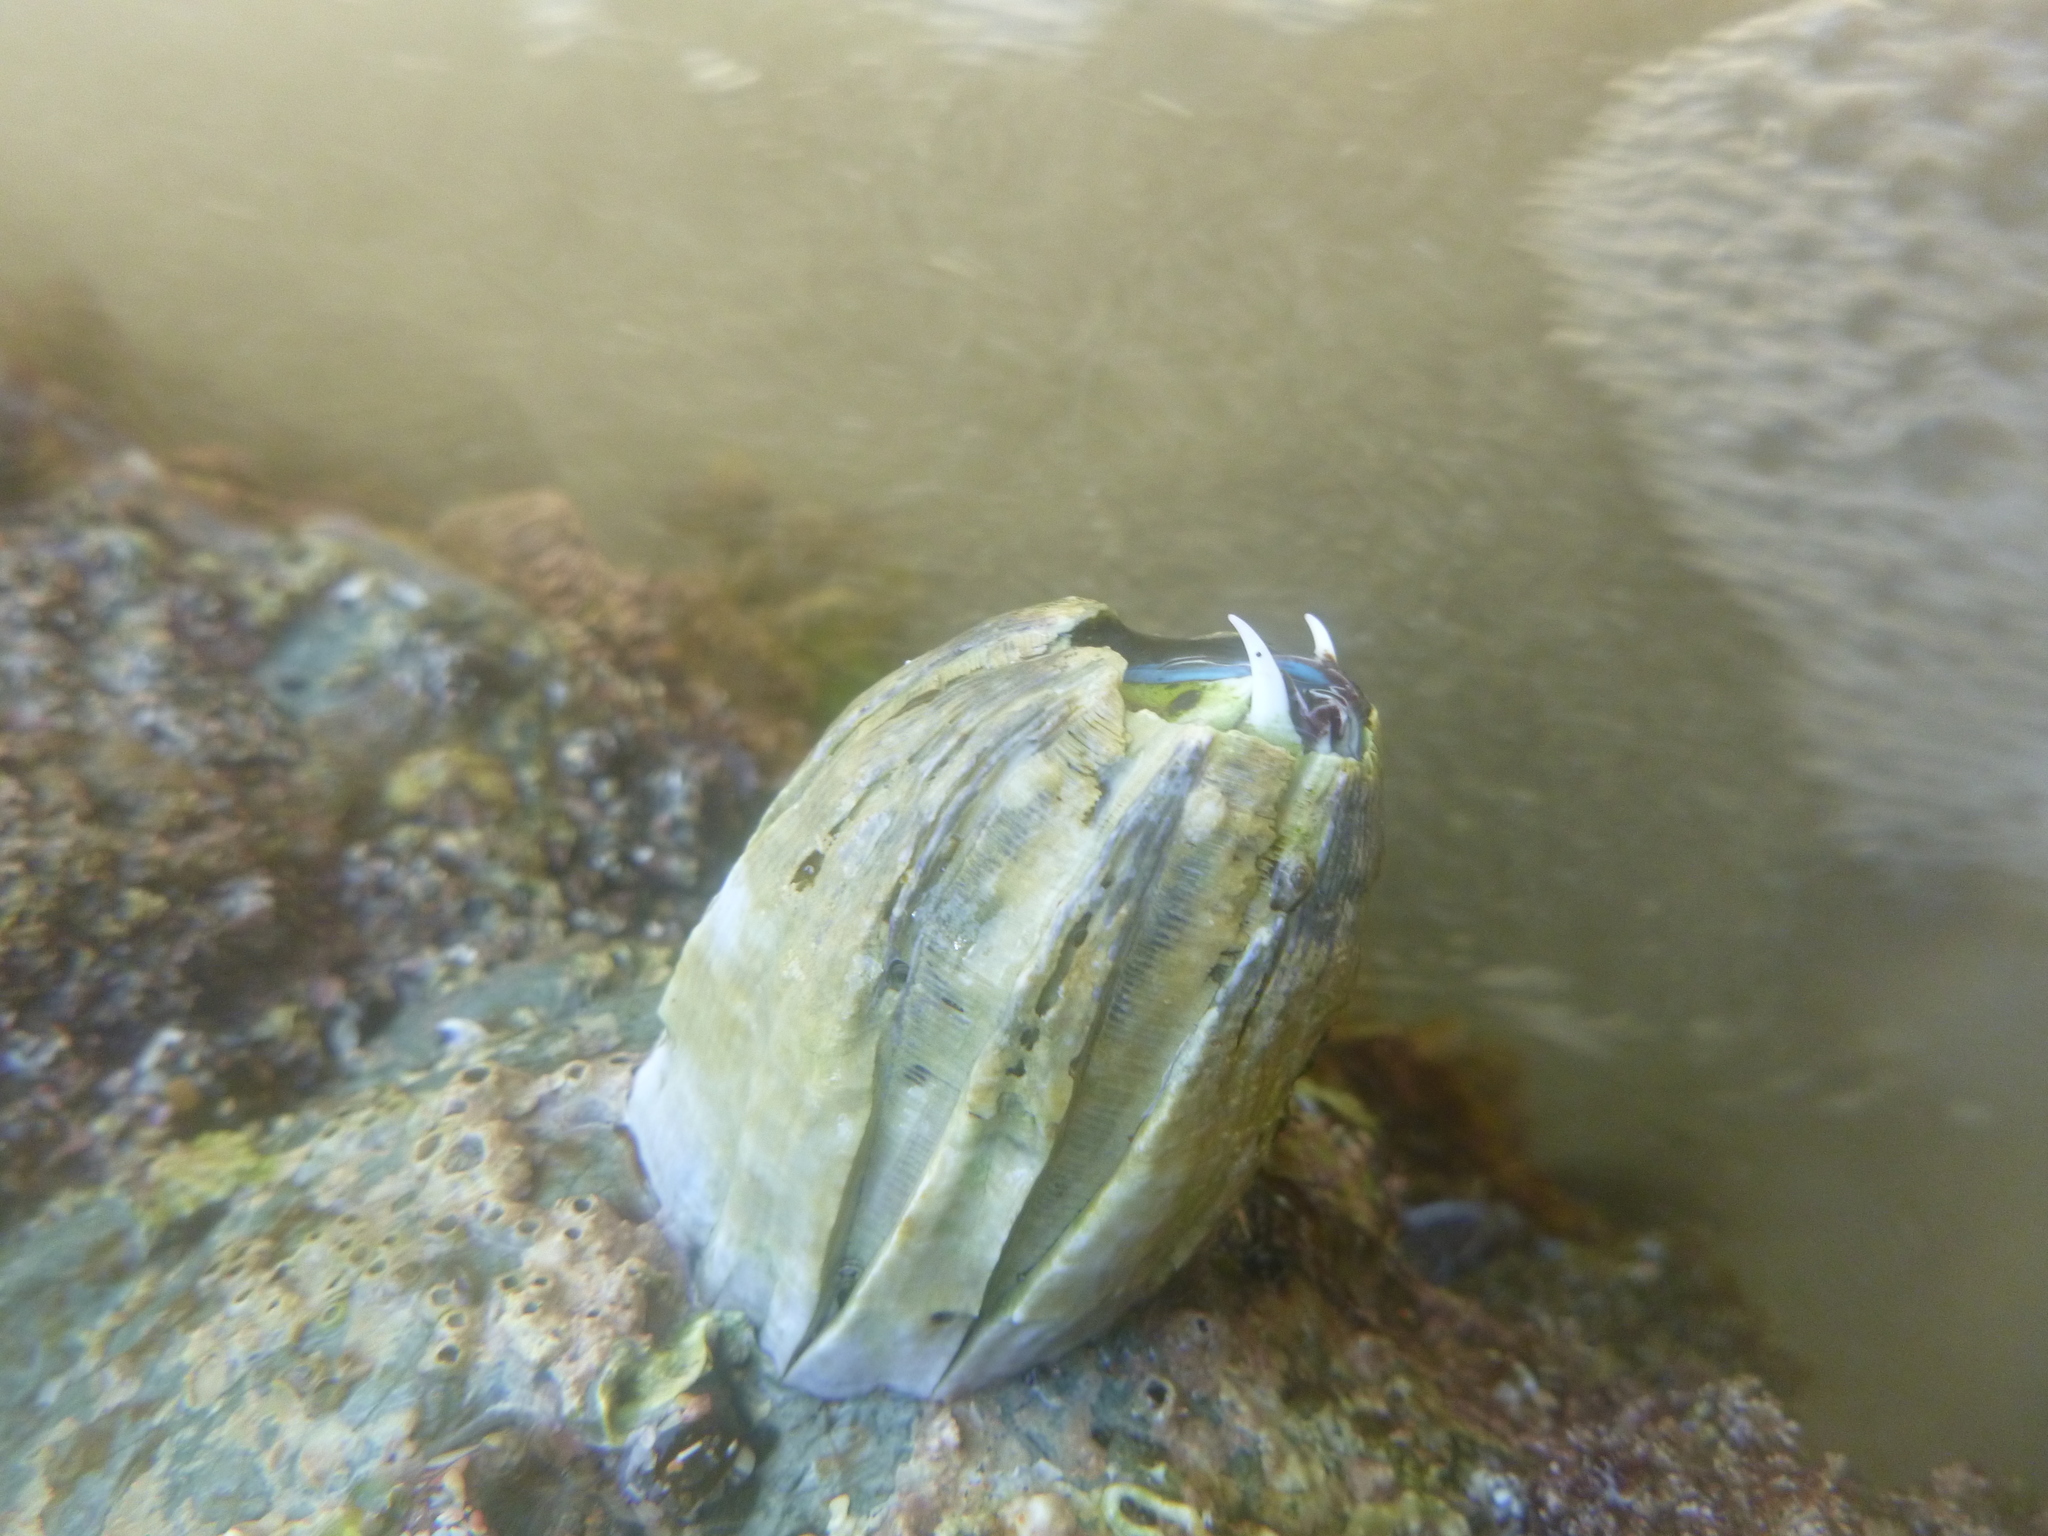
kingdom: Animalia
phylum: Arthropoda
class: Maxillopoda
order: Sessilia
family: Balanidae
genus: Austromegabalanus
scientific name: Austromegabalanus nigrescens
